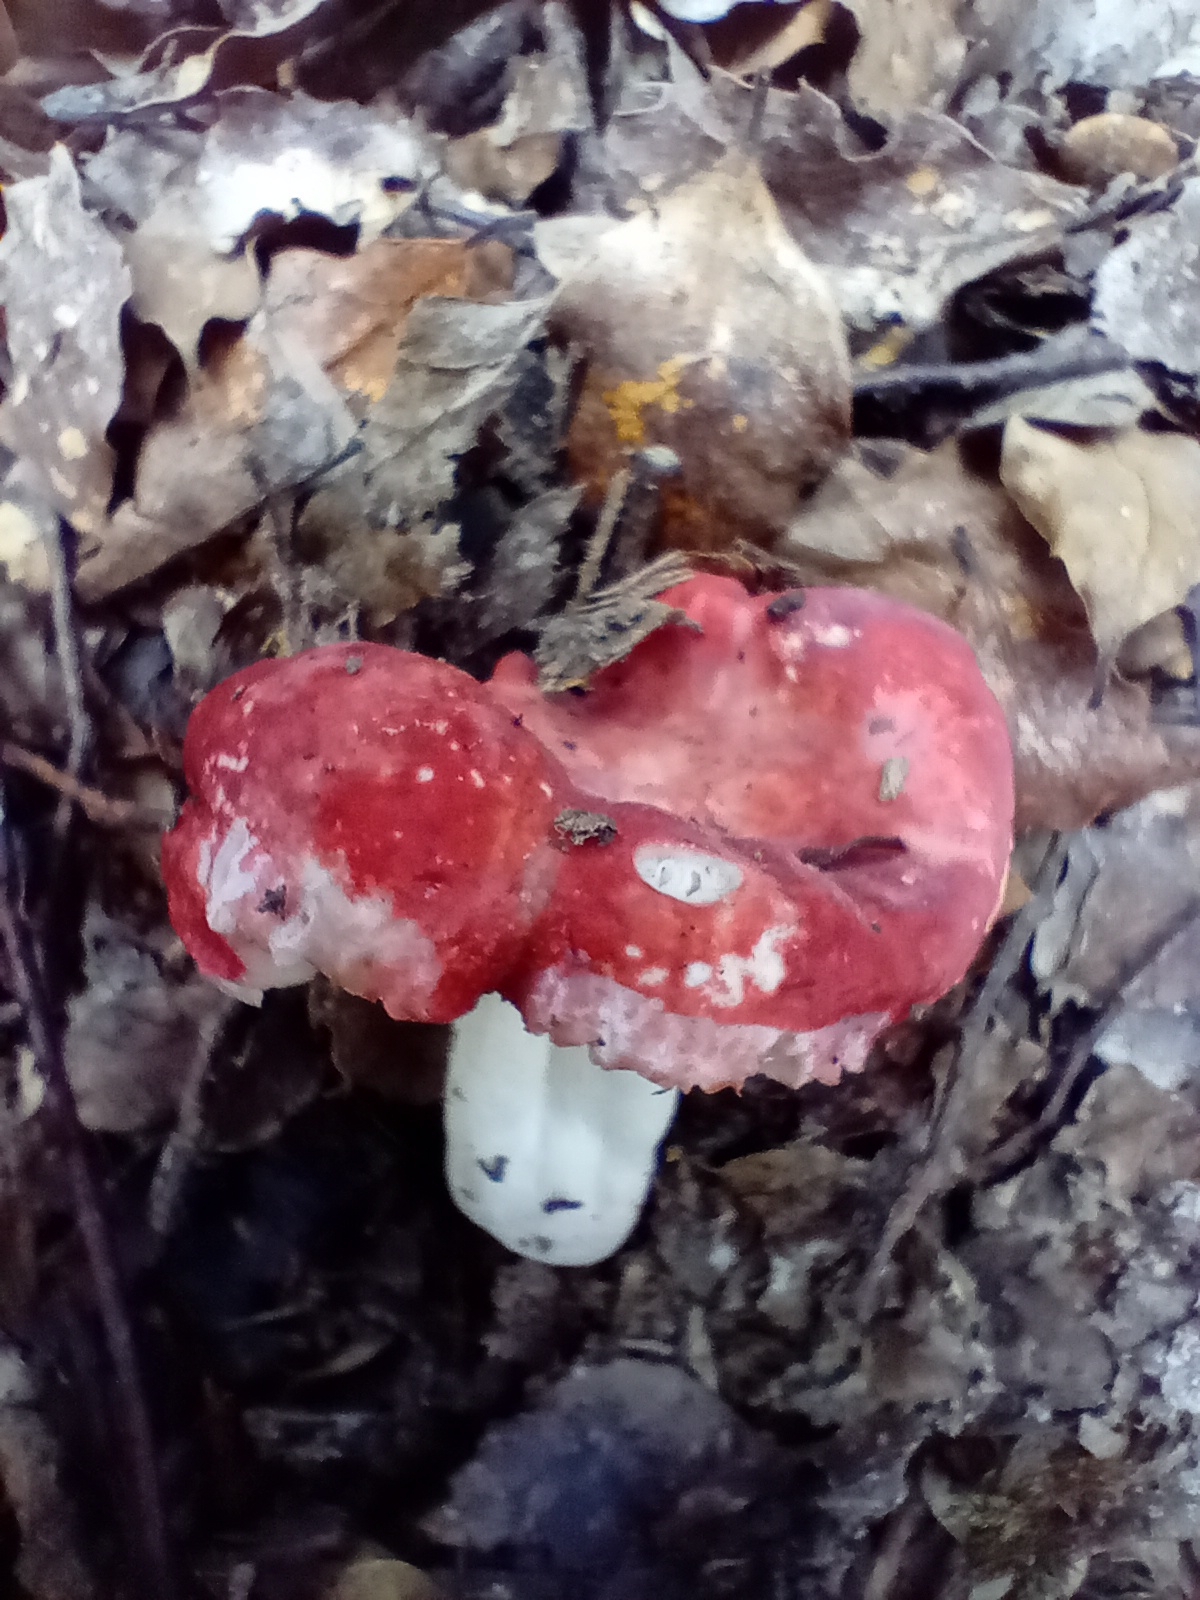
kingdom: Fungi
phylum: Basidiomycota
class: Agaricomycetes
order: Russulales
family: Russulaceae
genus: Russula
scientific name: Russula kermesina
